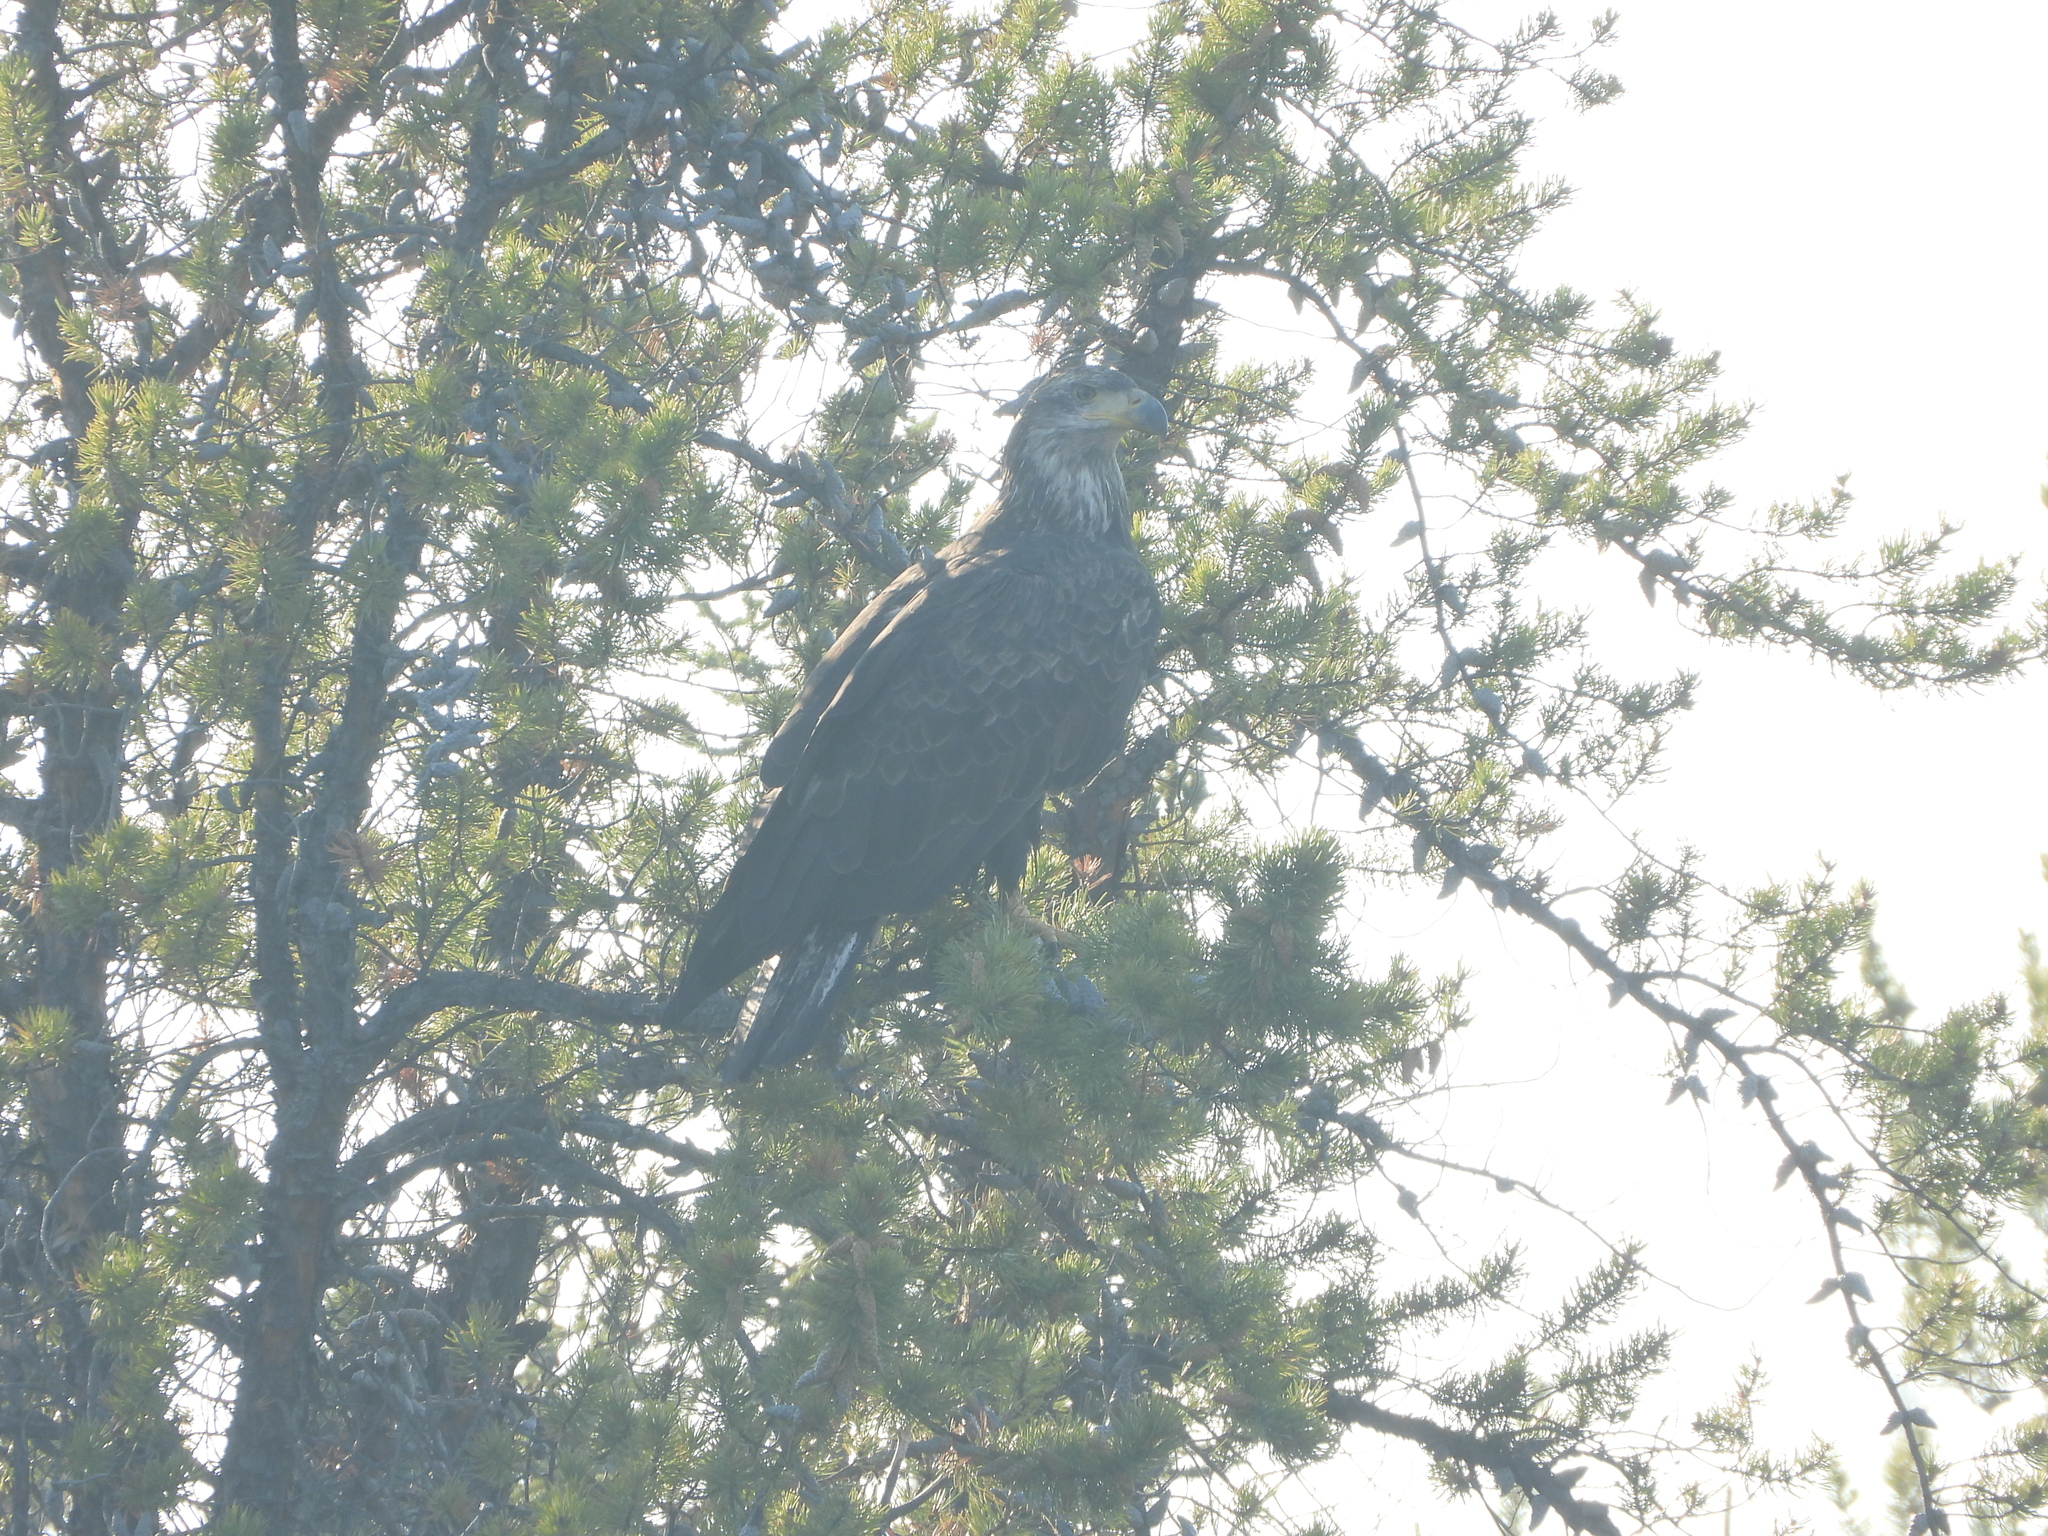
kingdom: Animalia
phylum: Chordata
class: Aves
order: Accipitriformes
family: Accipitridae
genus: Haliaeetus
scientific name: Haliaeetus leucocephalus
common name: Bald eagle
